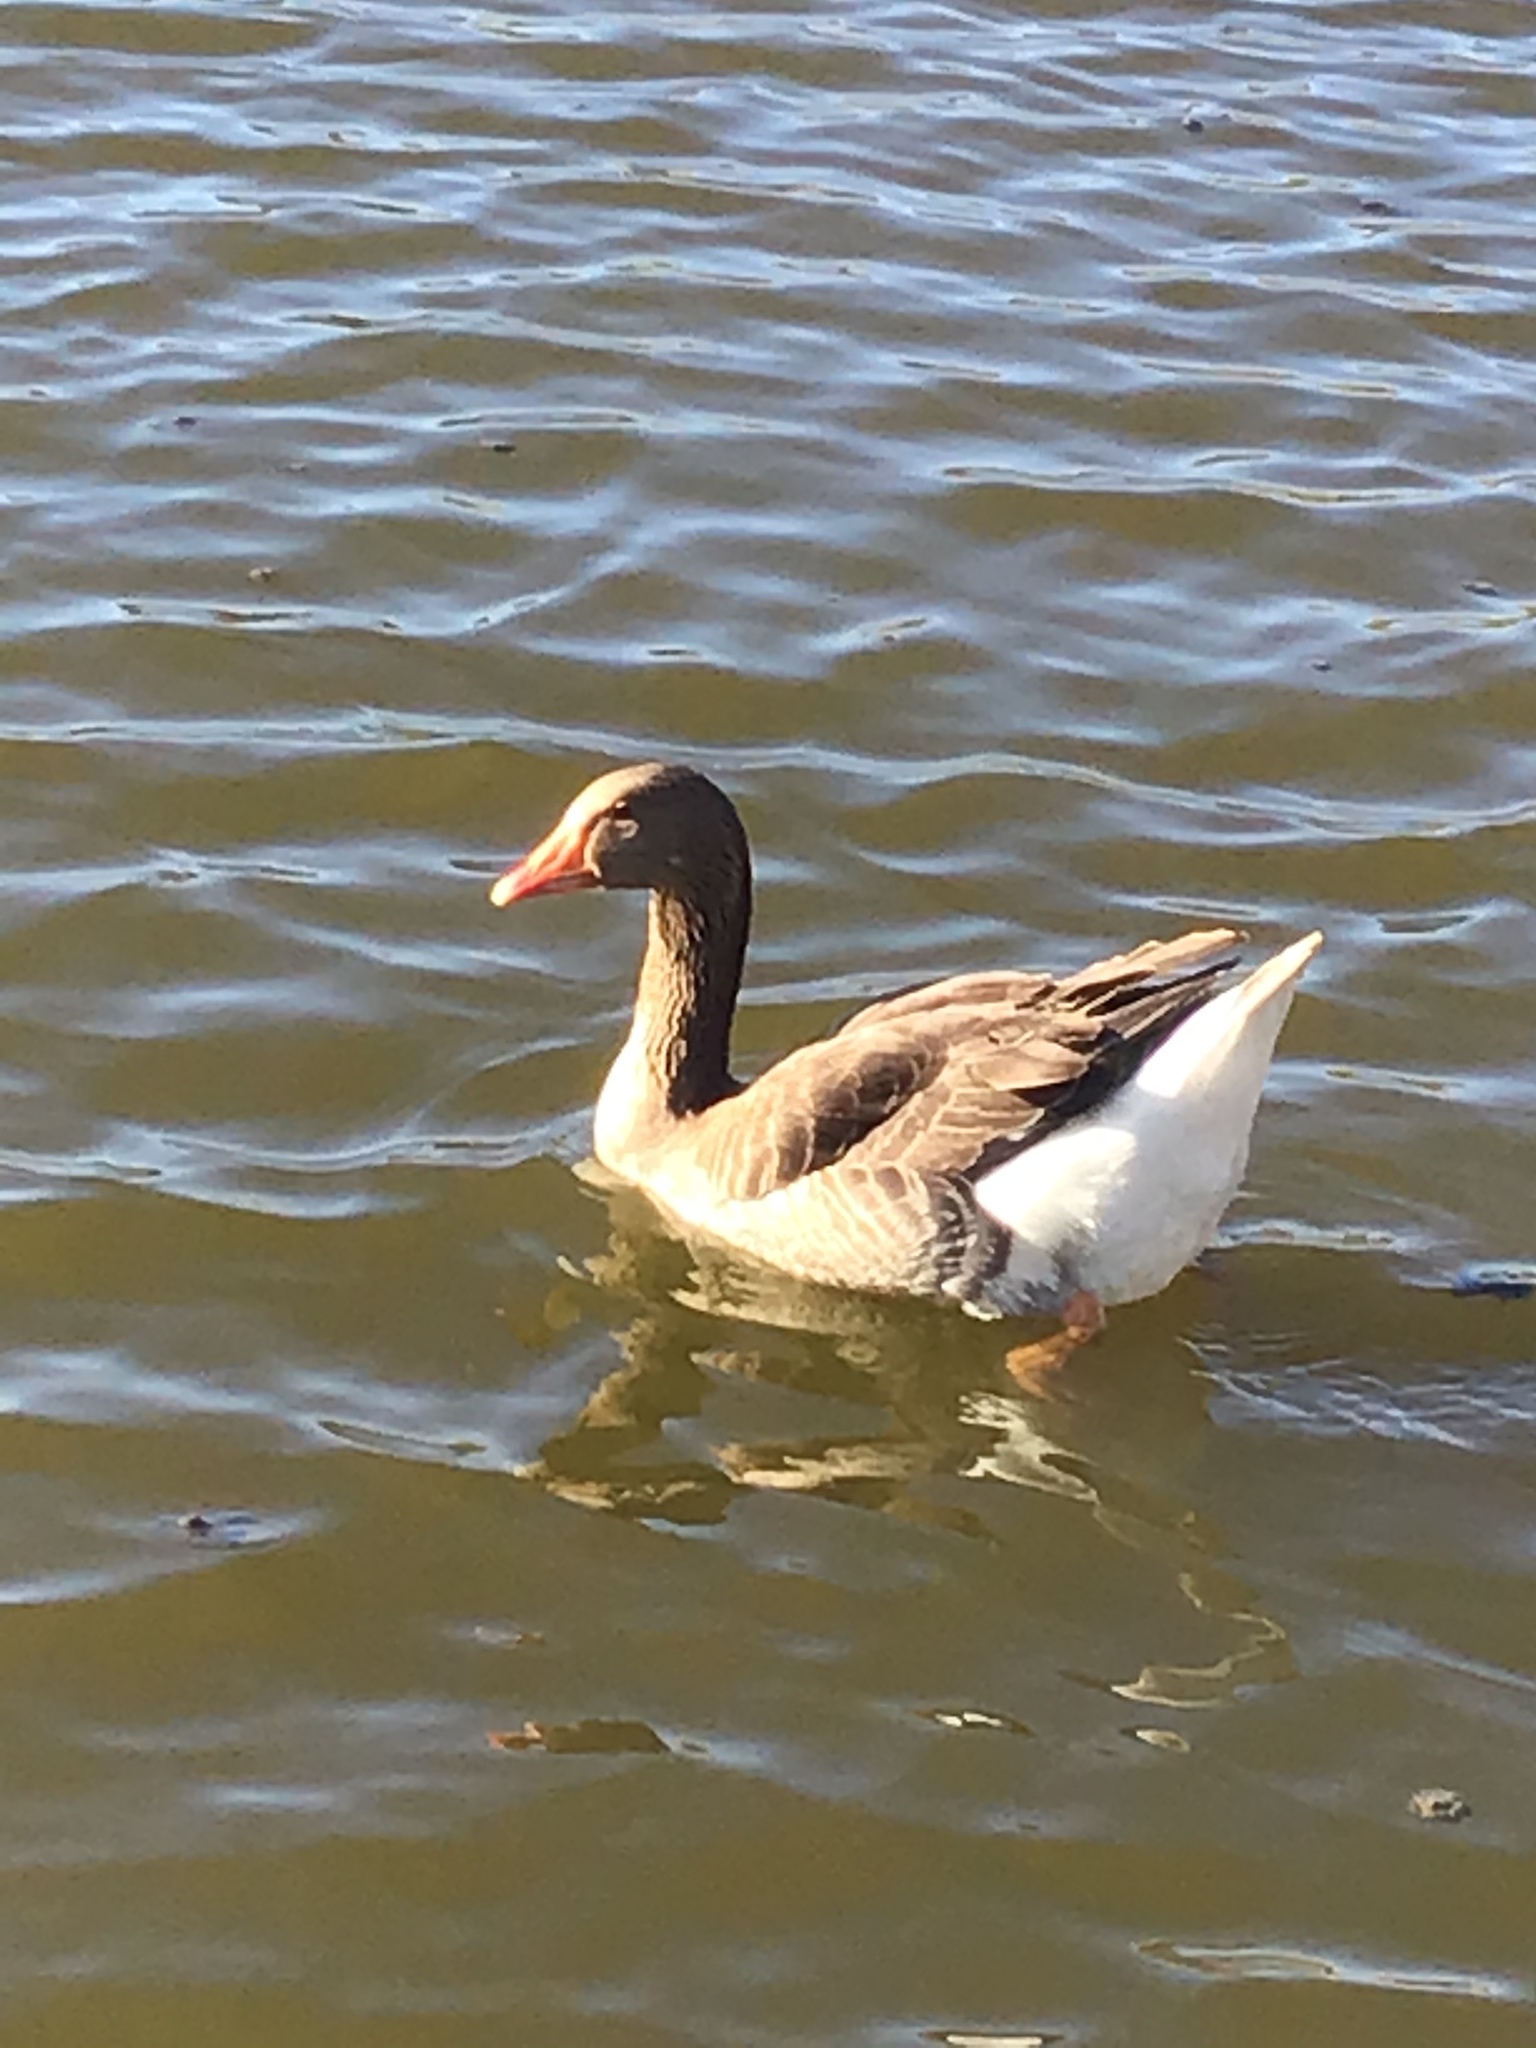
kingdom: Animalia
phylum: Chordata
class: Aves
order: Anseriformes
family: Anatidae
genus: Anser
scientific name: Anser anser
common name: Greylag goose
